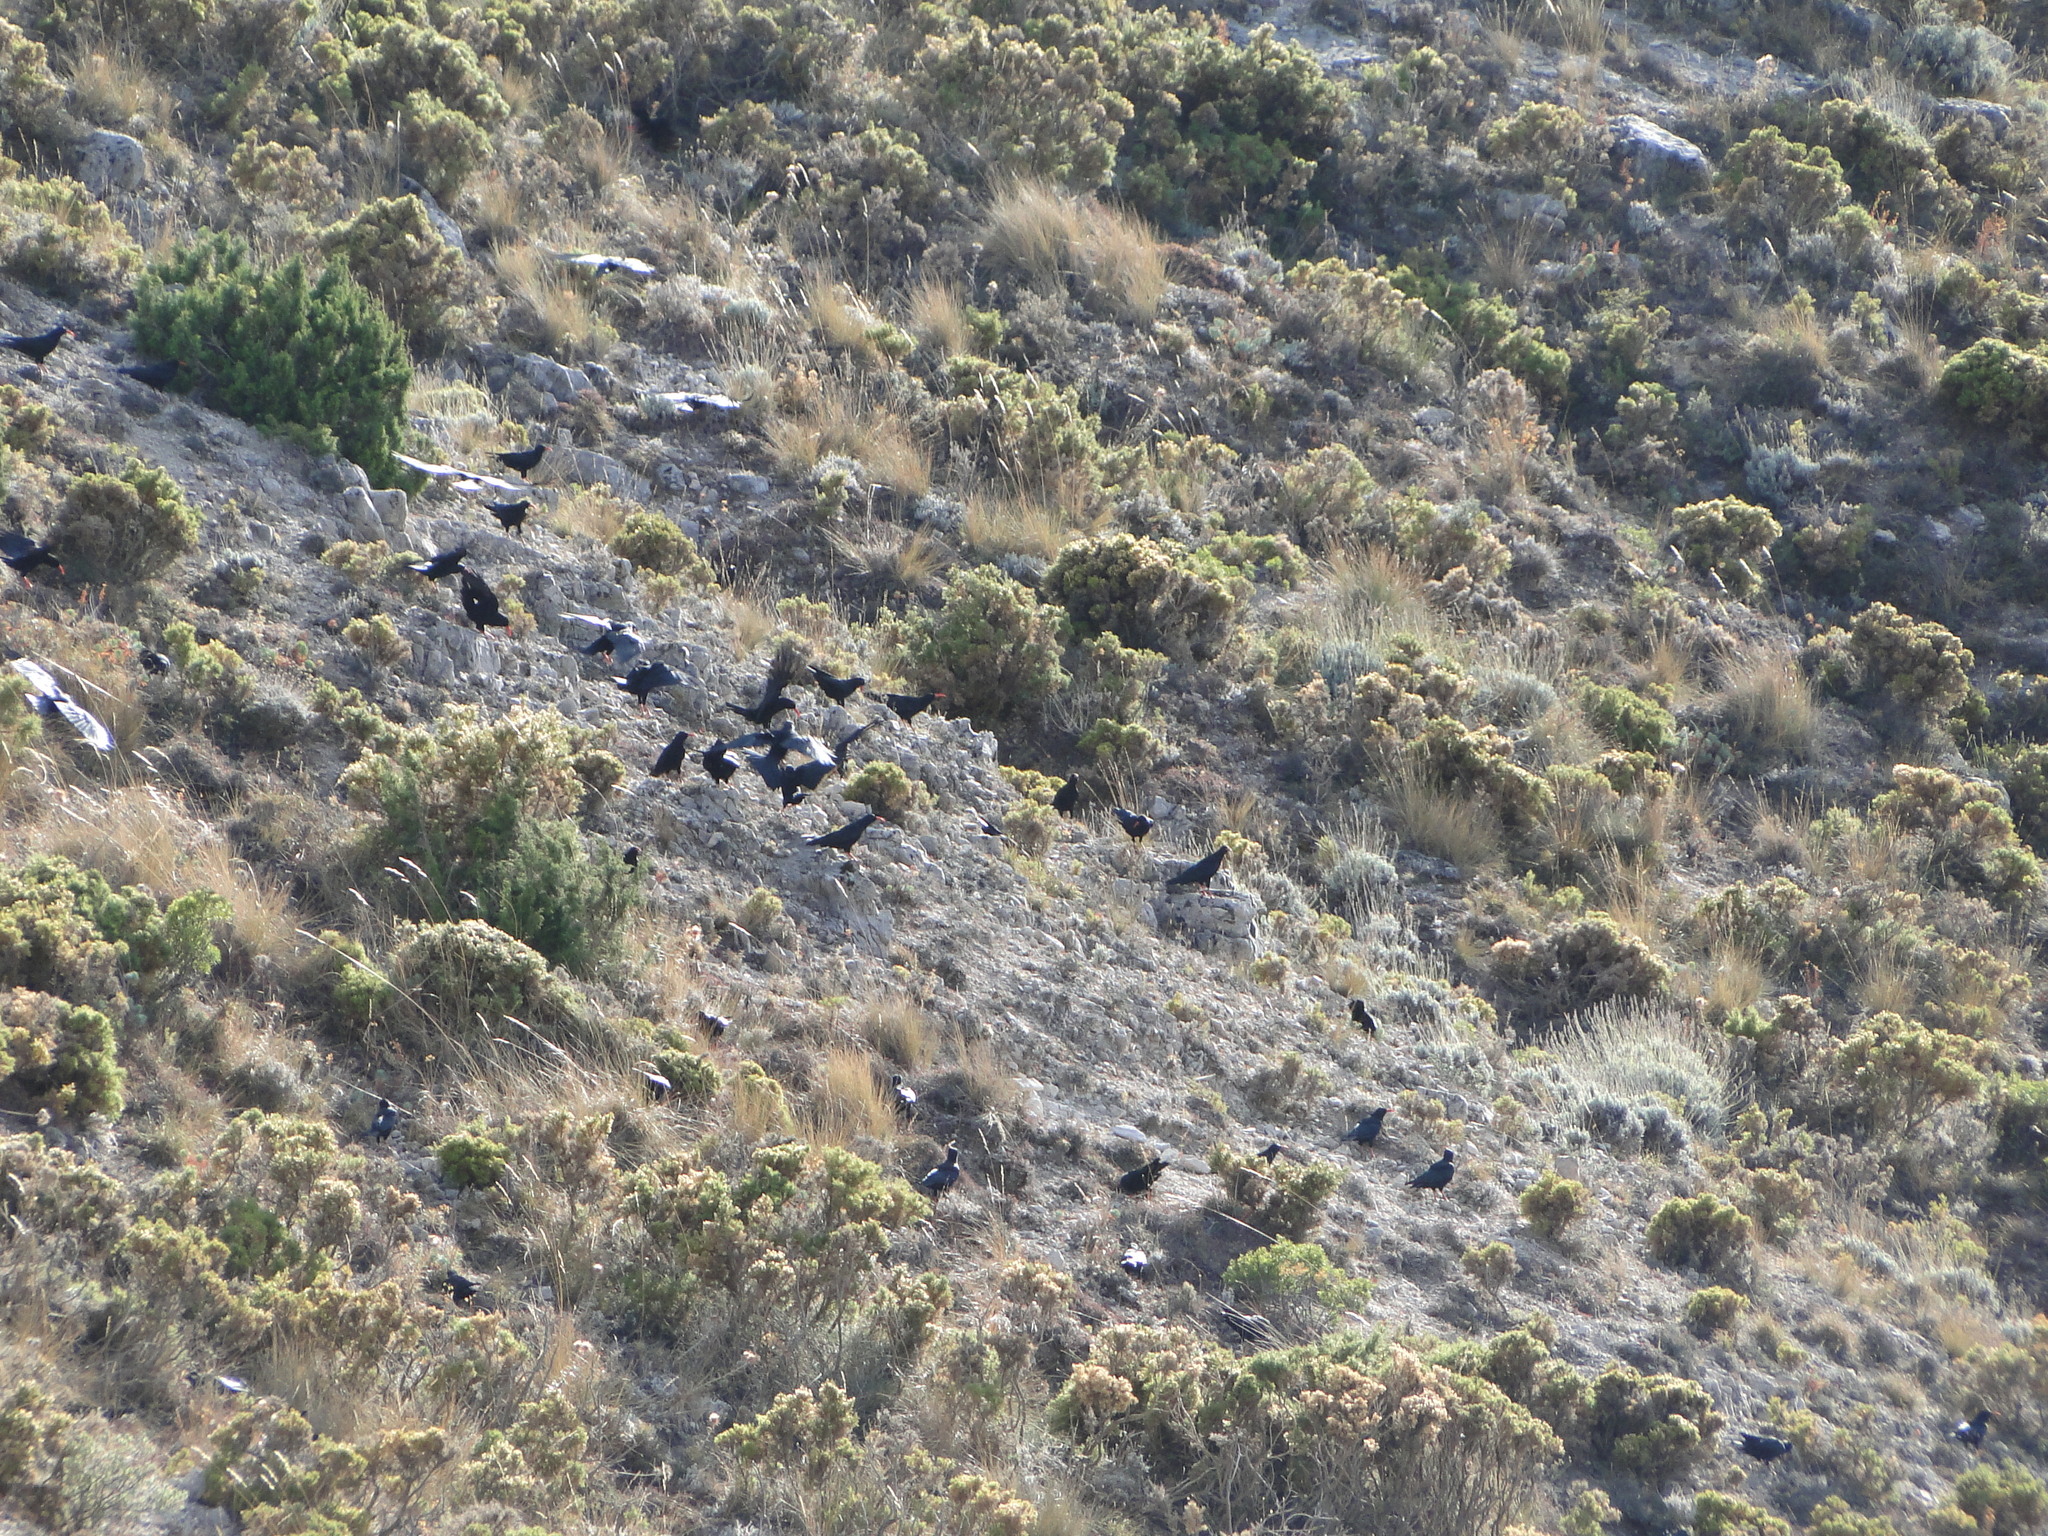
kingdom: Animalia
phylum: Chordata
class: Aves
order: Passeriformes
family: Corvidae
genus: Pyrrhocorax
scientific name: Pyrrhocorax pyrrhocorax
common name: Red-billed chough
